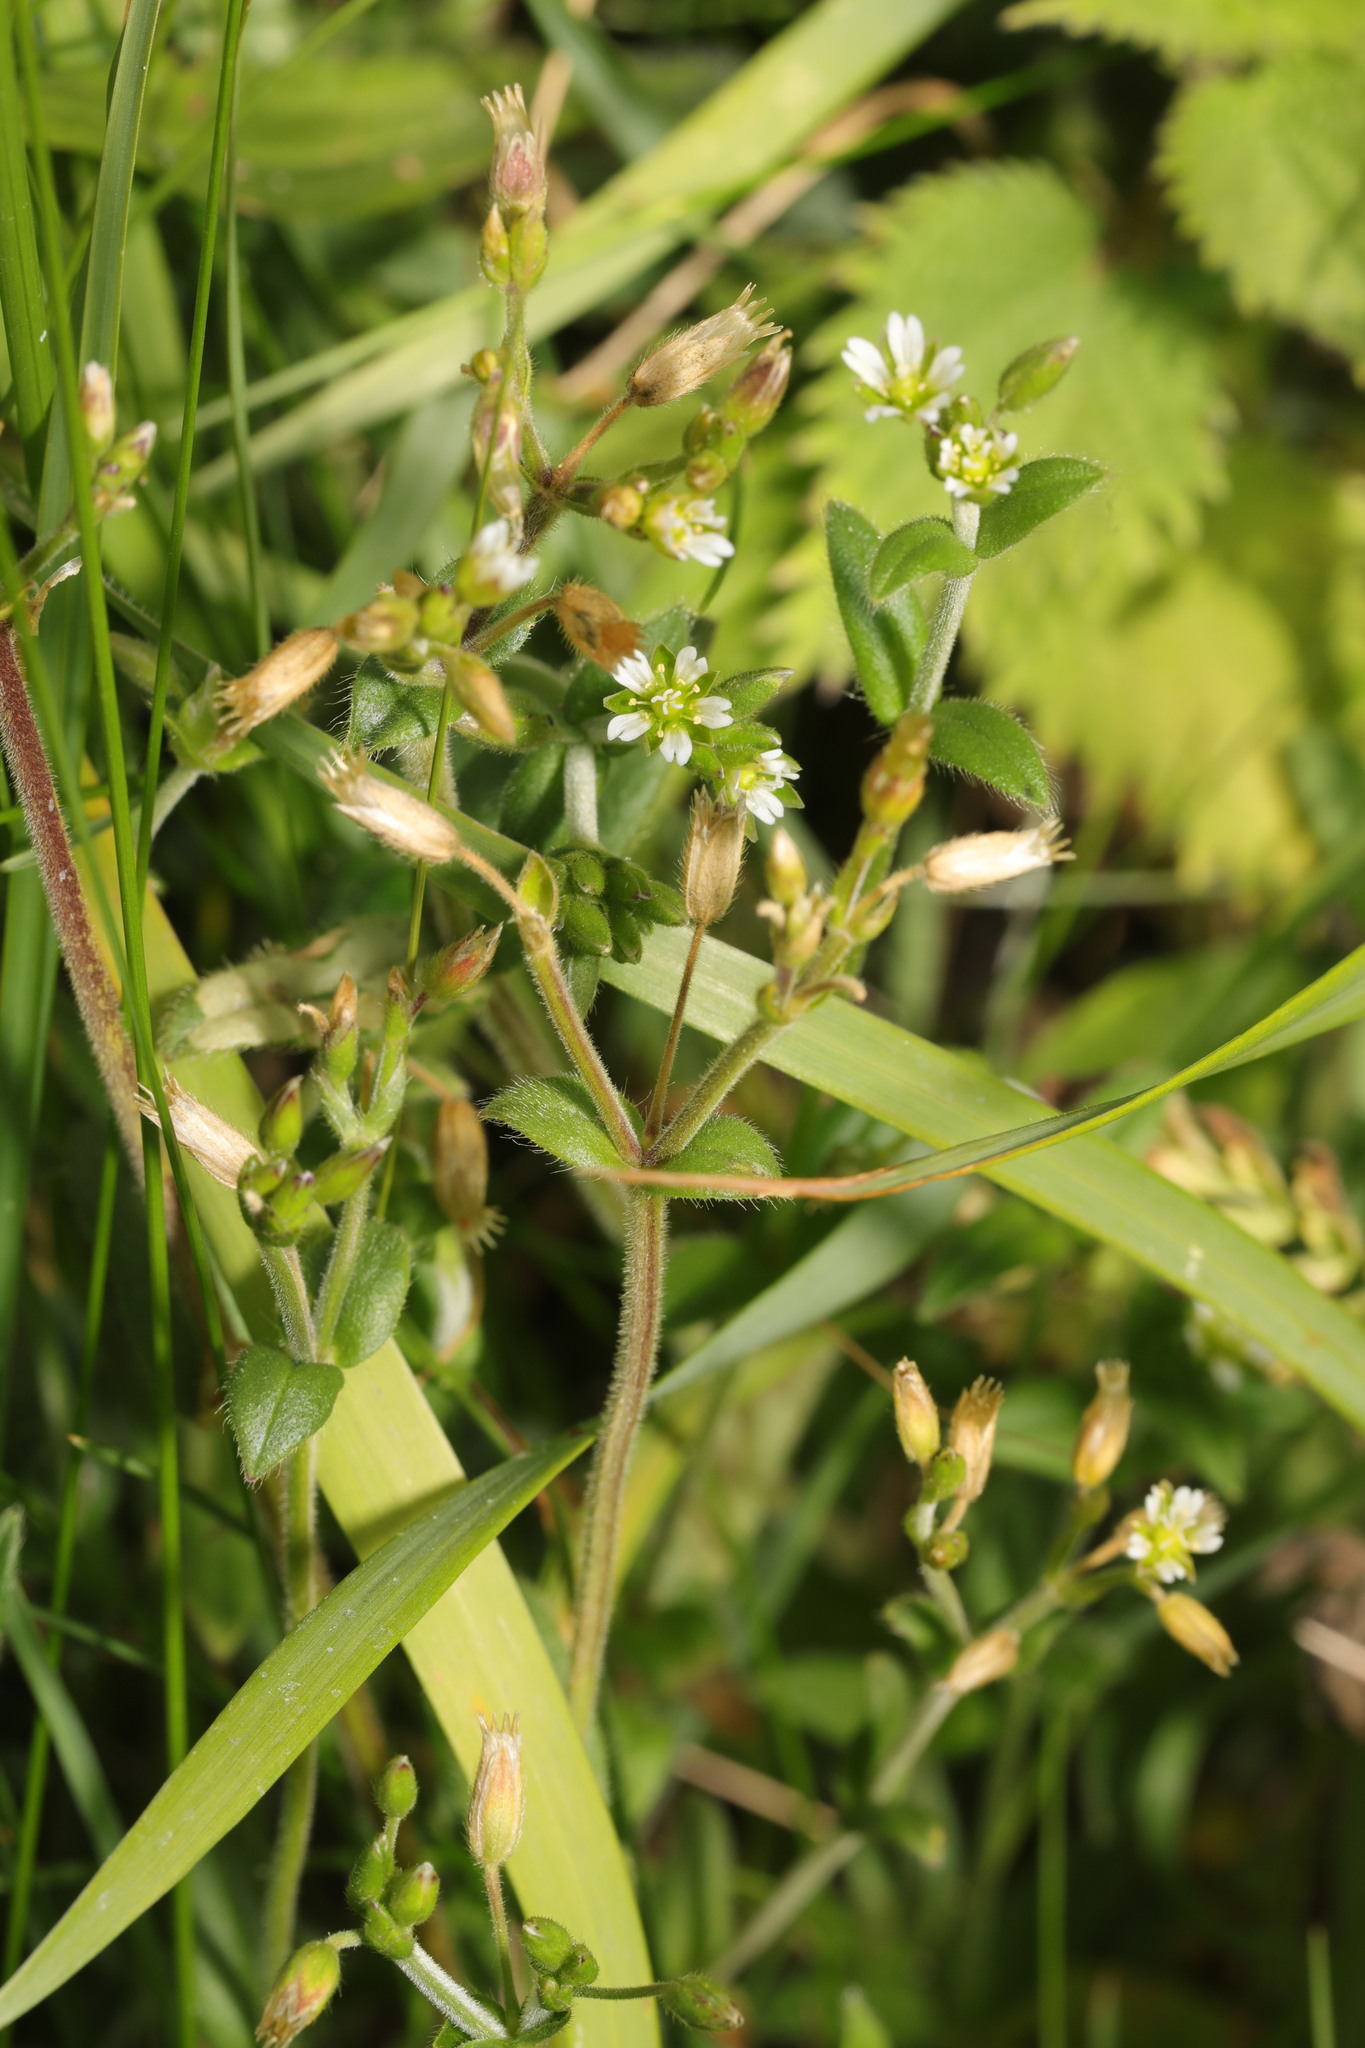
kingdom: Plantae
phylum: Tracheophyta
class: Magnoliopsida
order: Caryophyllales
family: Caryophyllaceae
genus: Cerastium
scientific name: Cerastium fontanum
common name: Common mouse-ear
